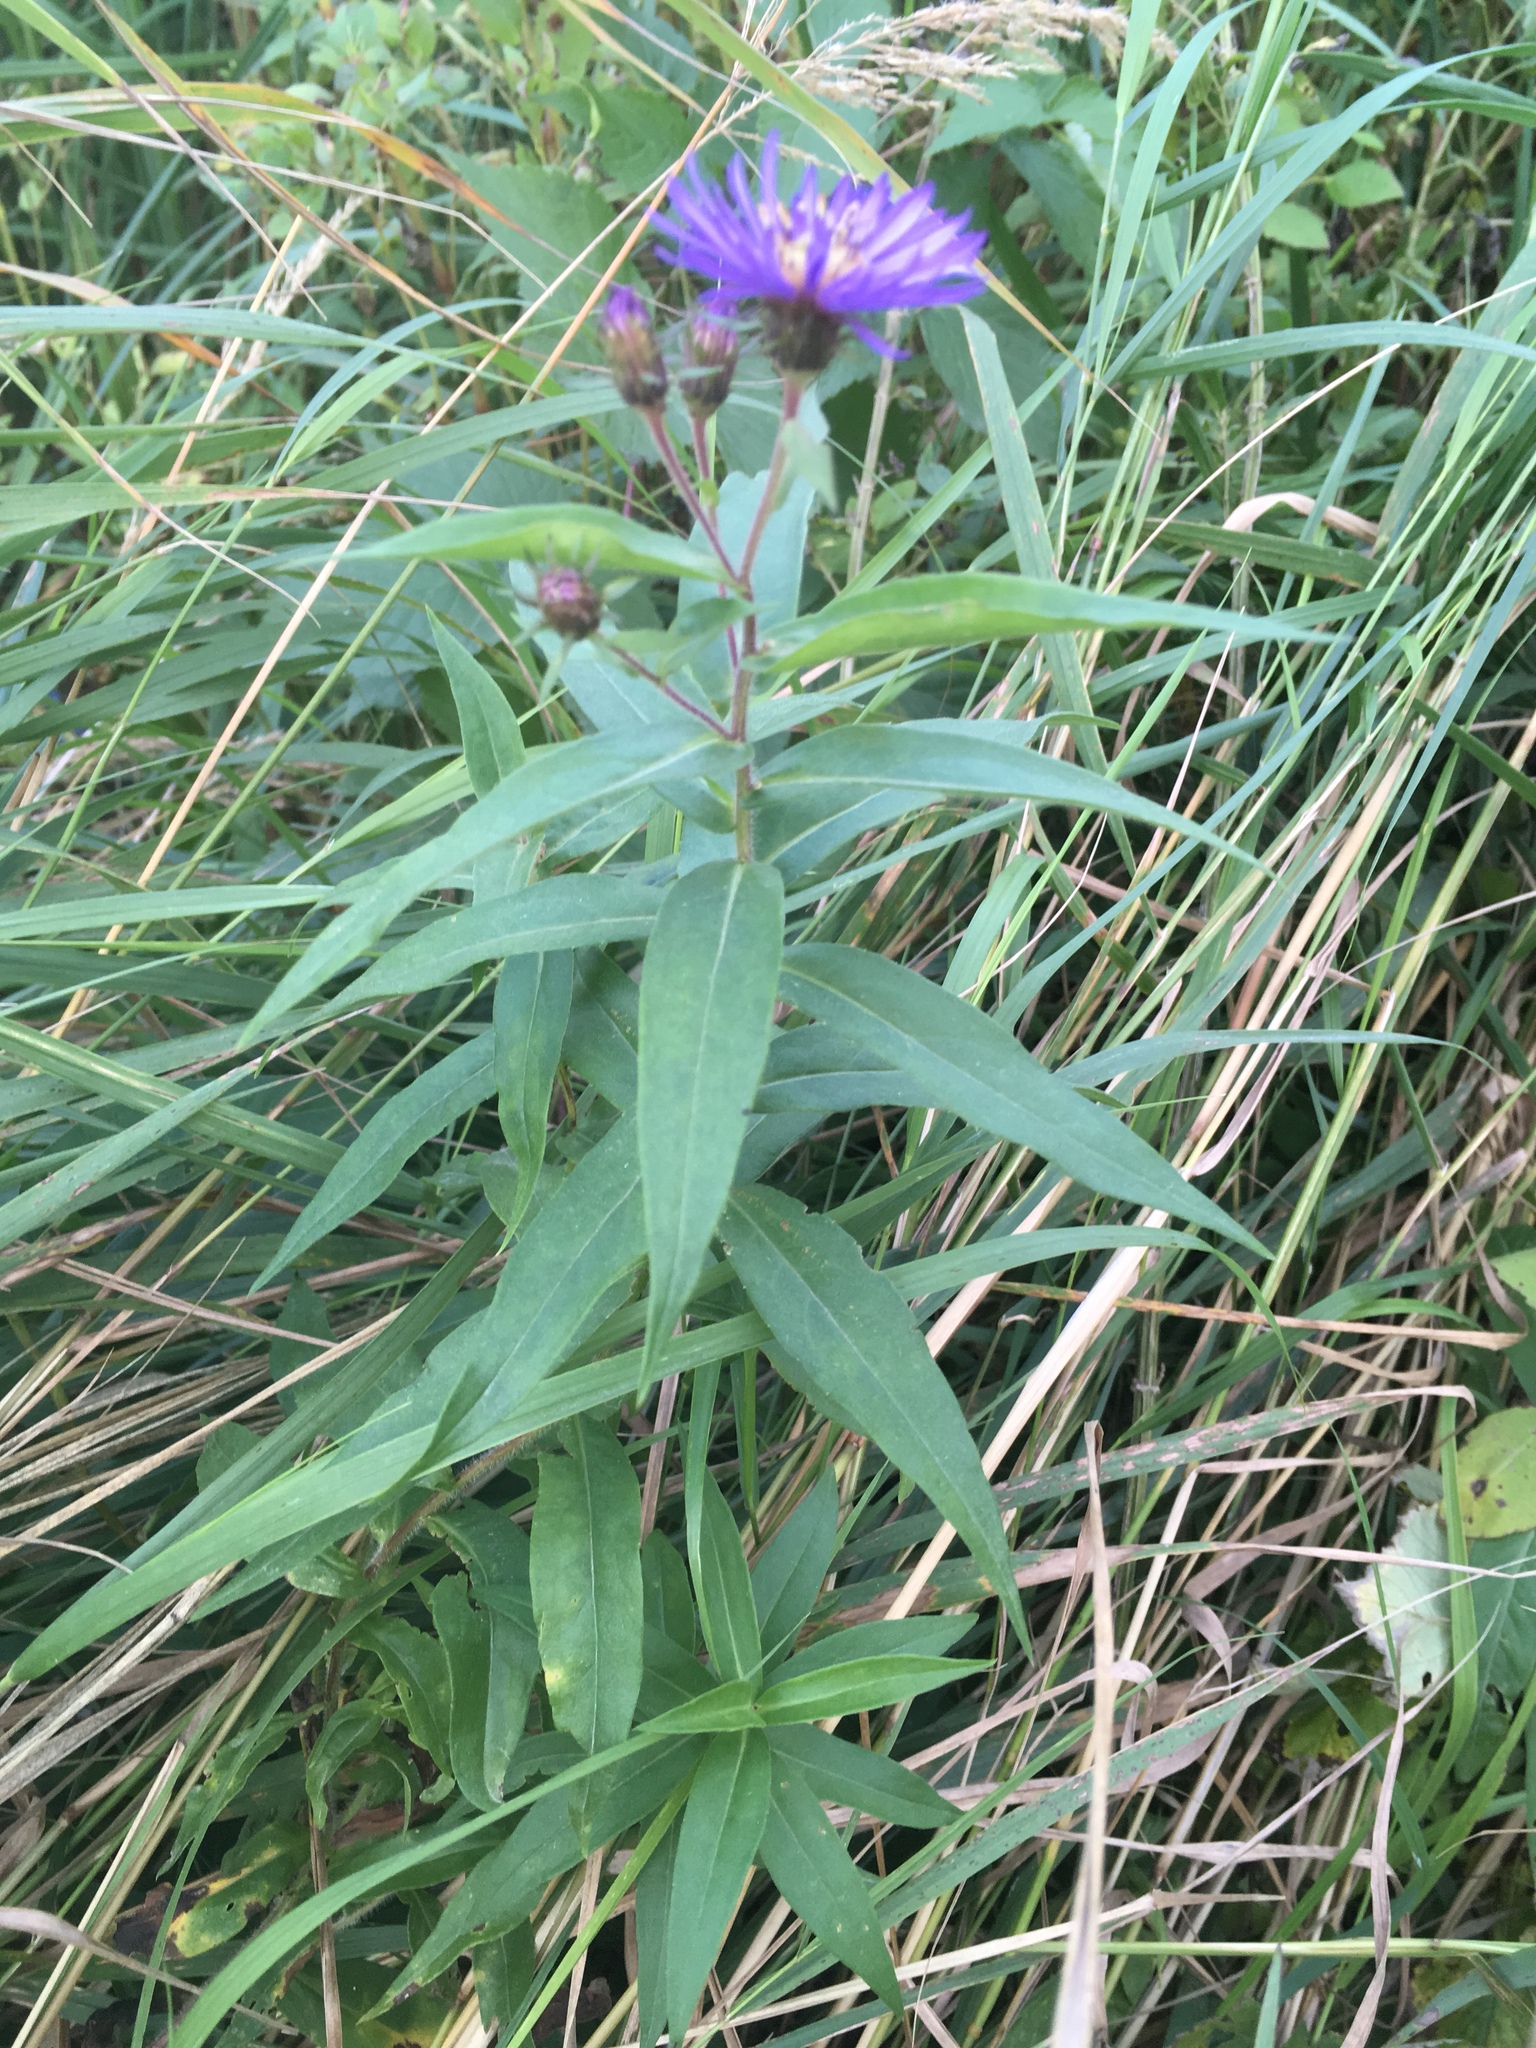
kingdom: Plantae
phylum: Tracheophyta
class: Magnoliopsida
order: Asterales
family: Asteraceae
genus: Canadanthus
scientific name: Canadanthus modestus
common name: Great northern aster
